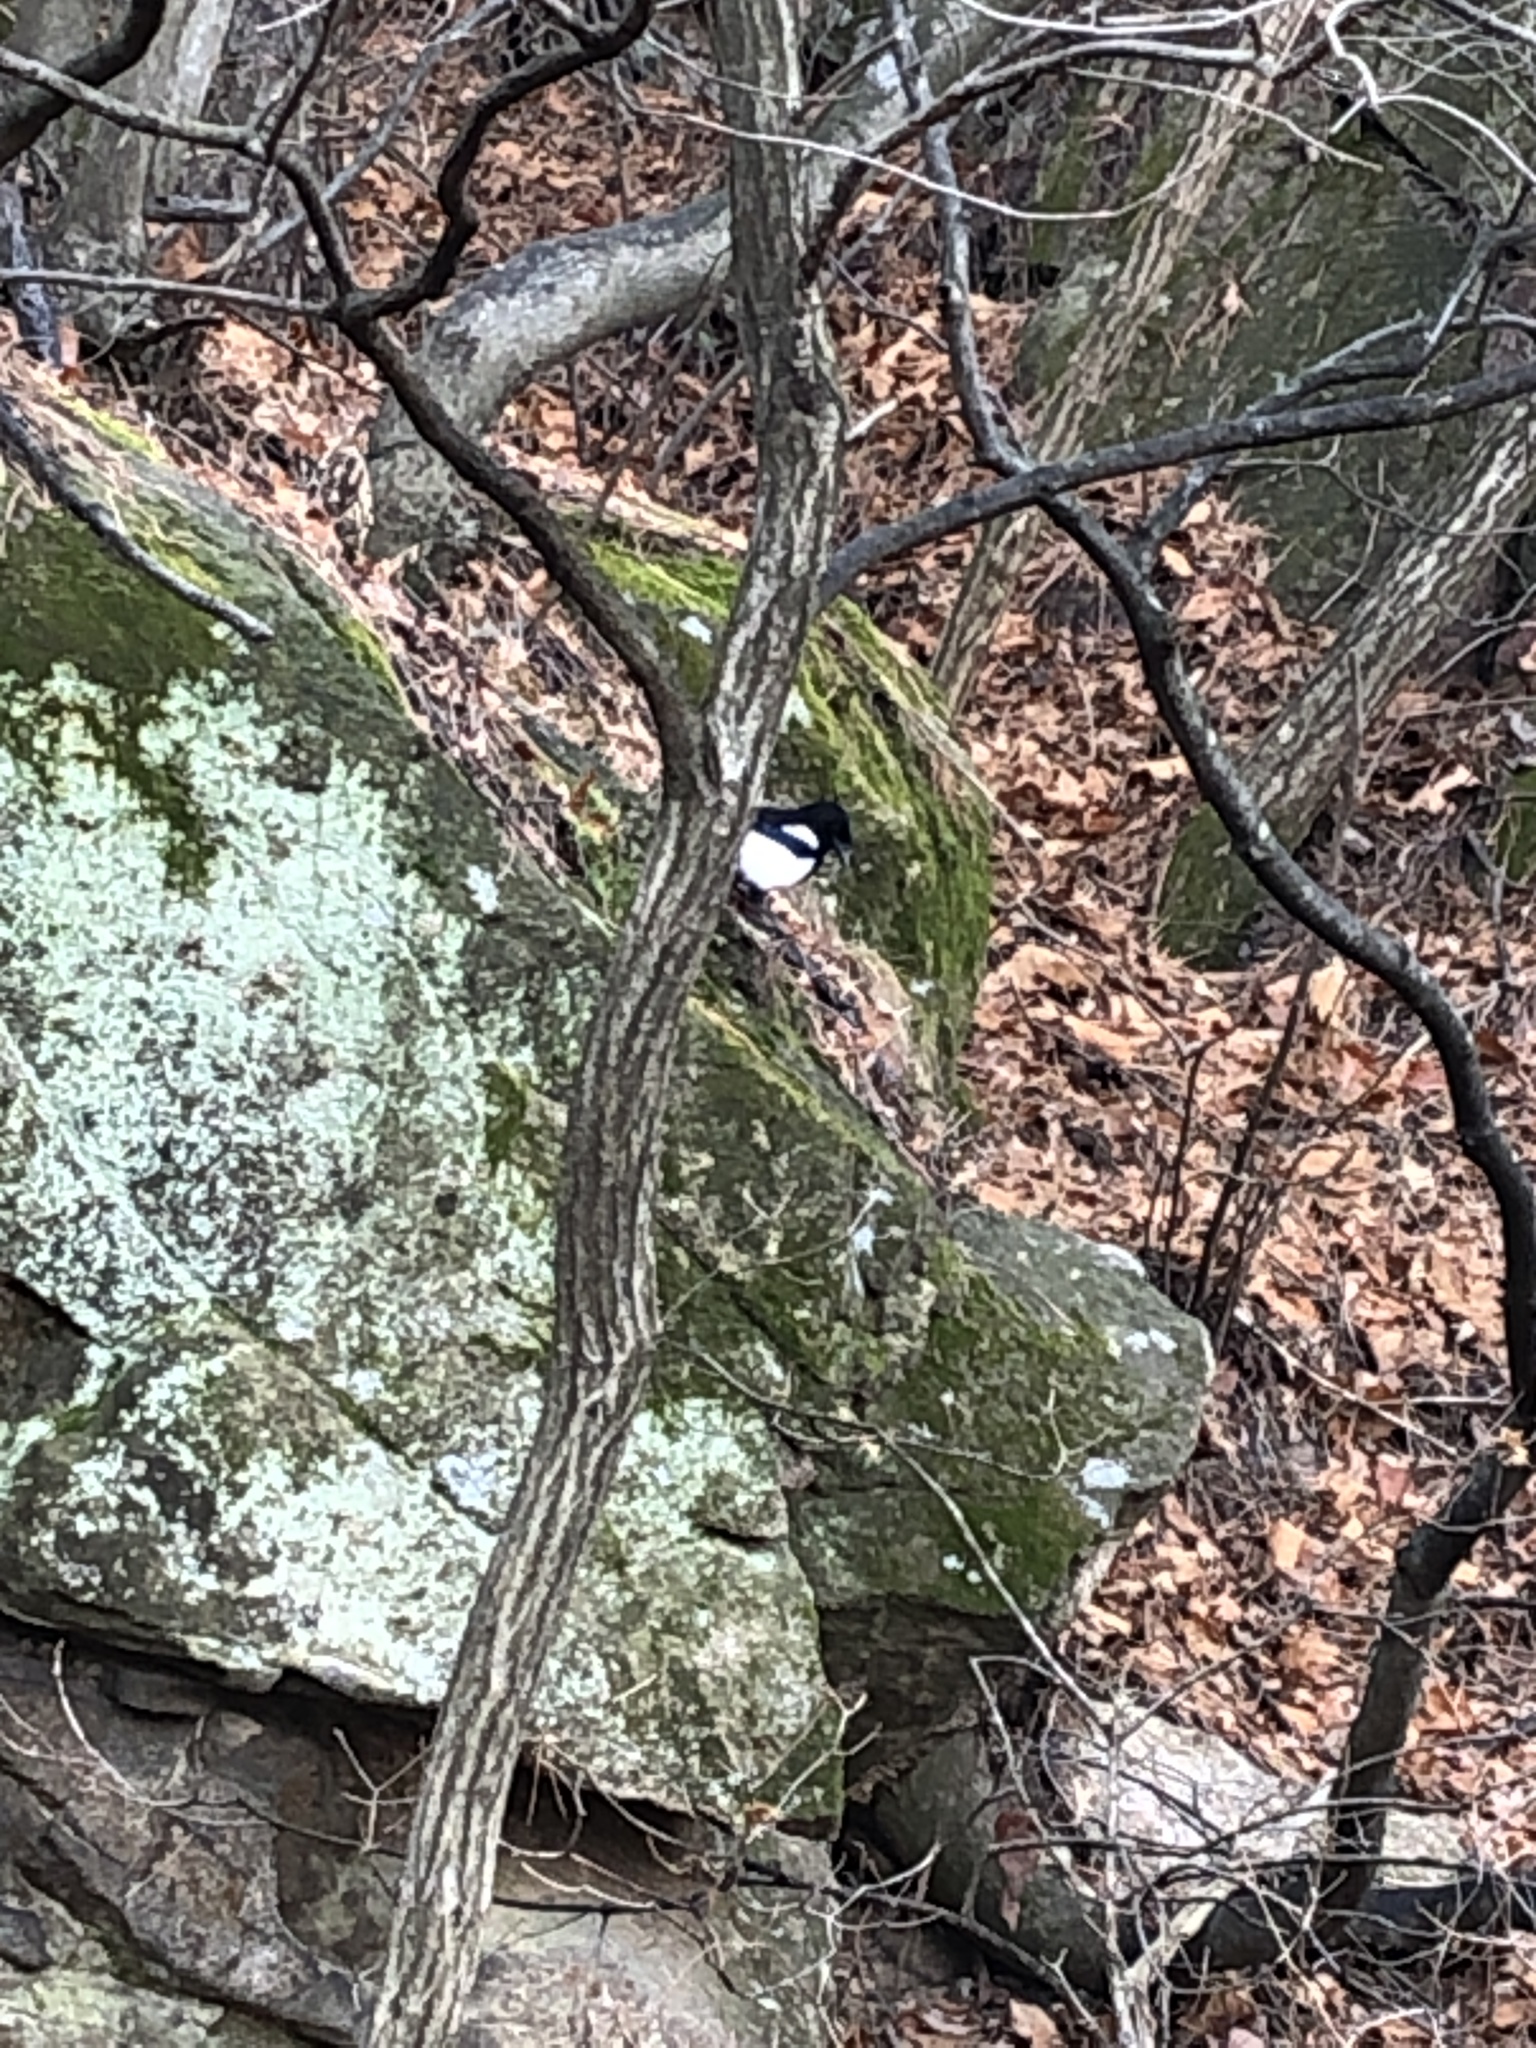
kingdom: Animalia
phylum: Chordata
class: Aves
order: Passeriformes
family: Corvidae
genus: Pica
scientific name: Pica serica
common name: Oriental magpie
